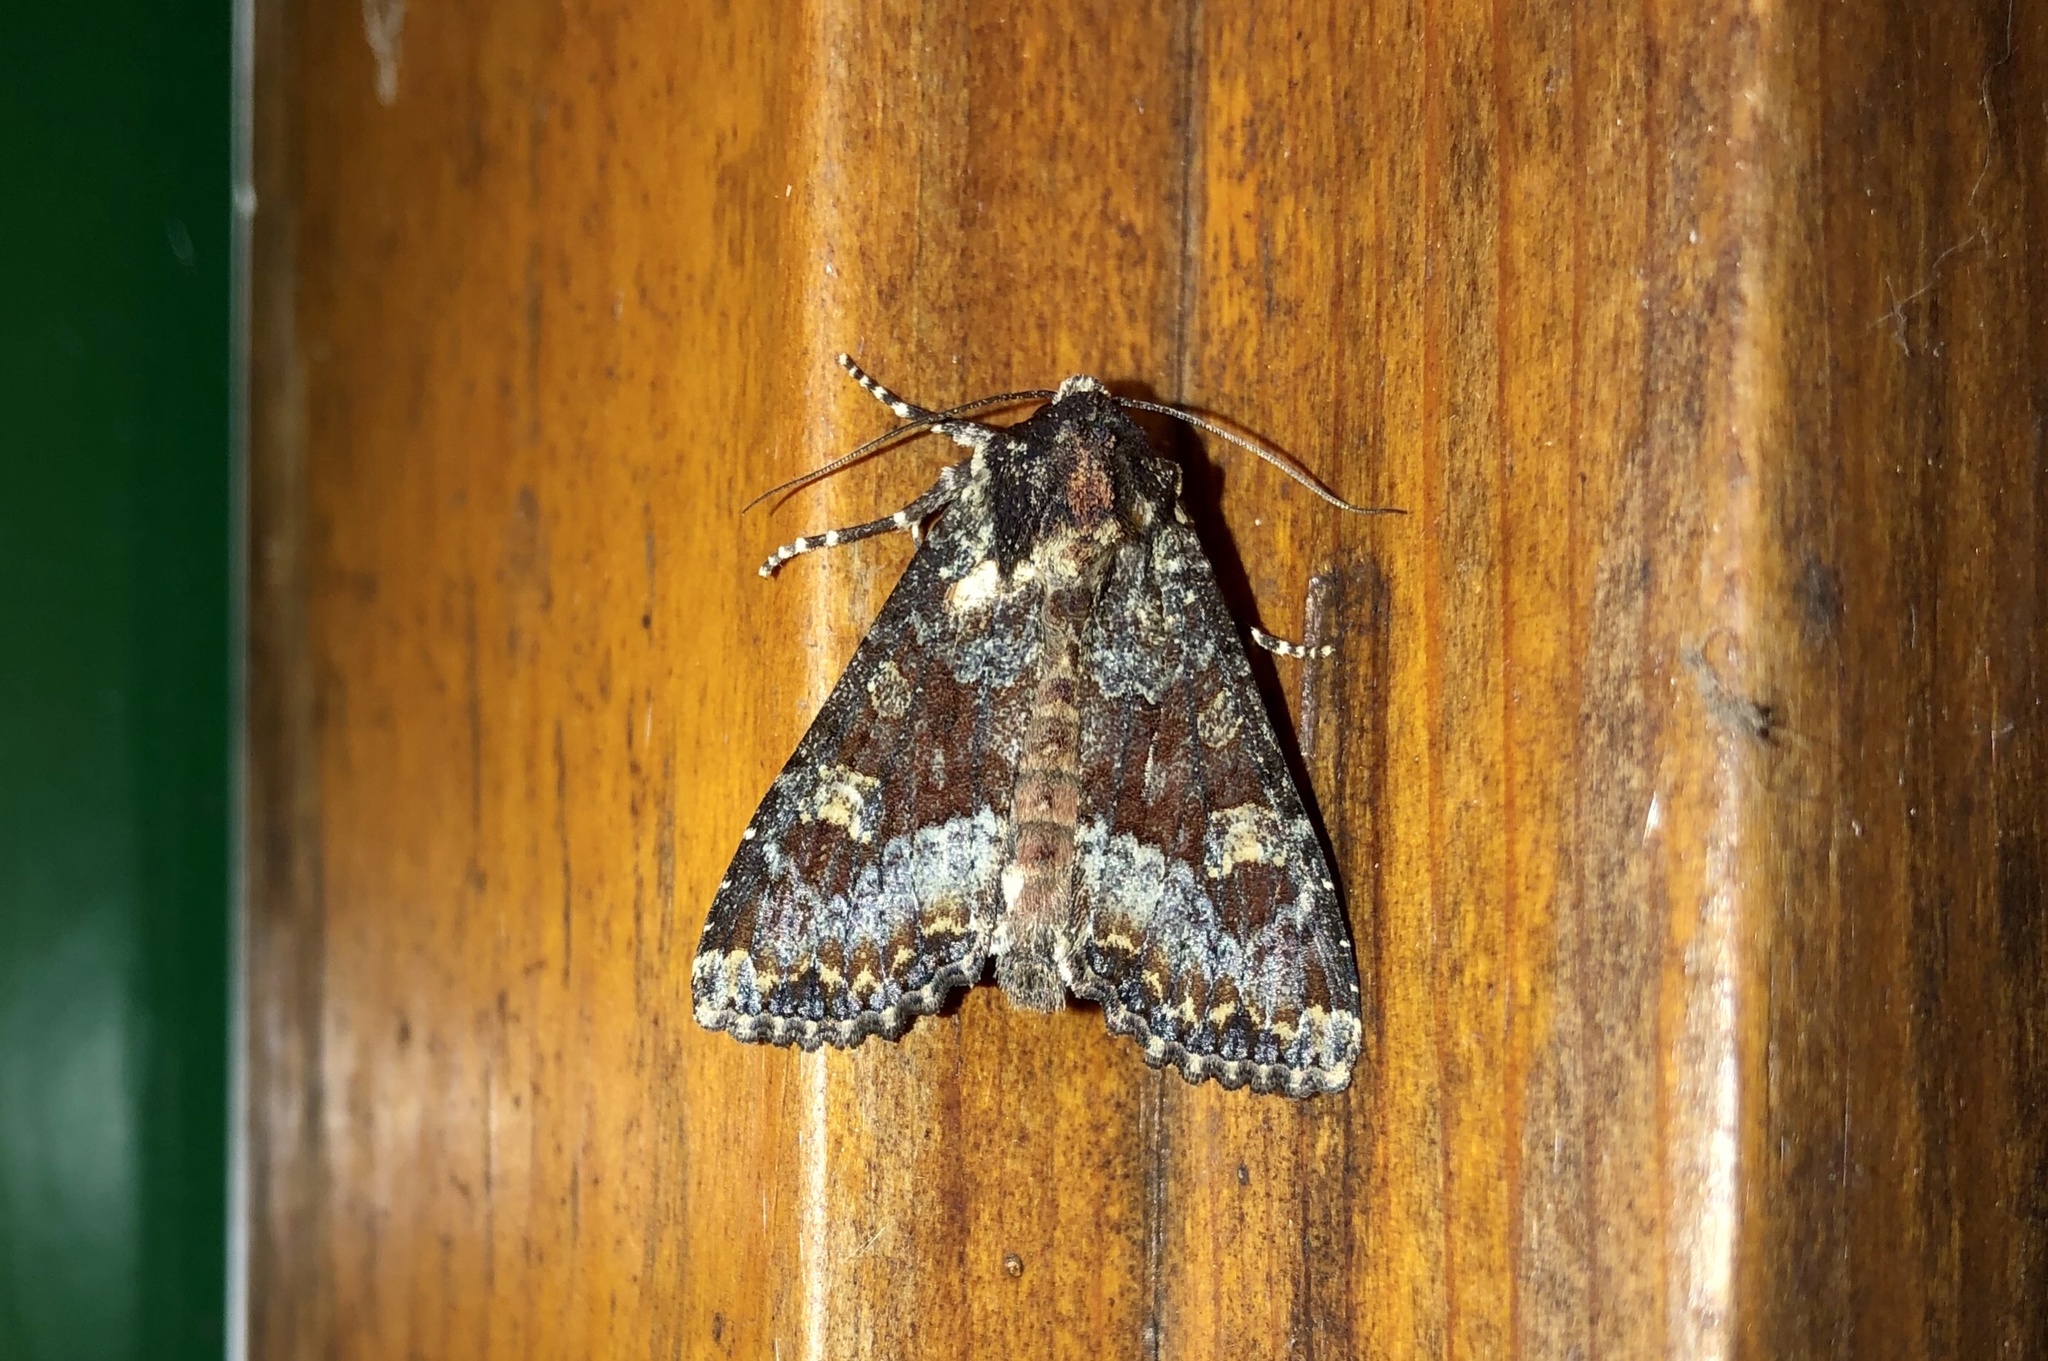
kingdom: Animalia
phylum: Arthropoda
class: Insecta
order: Lepidoptera
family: Noctuidae
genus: Apamea
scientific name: Apamea amputatrix
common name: Yellow-headed cutworm moth
